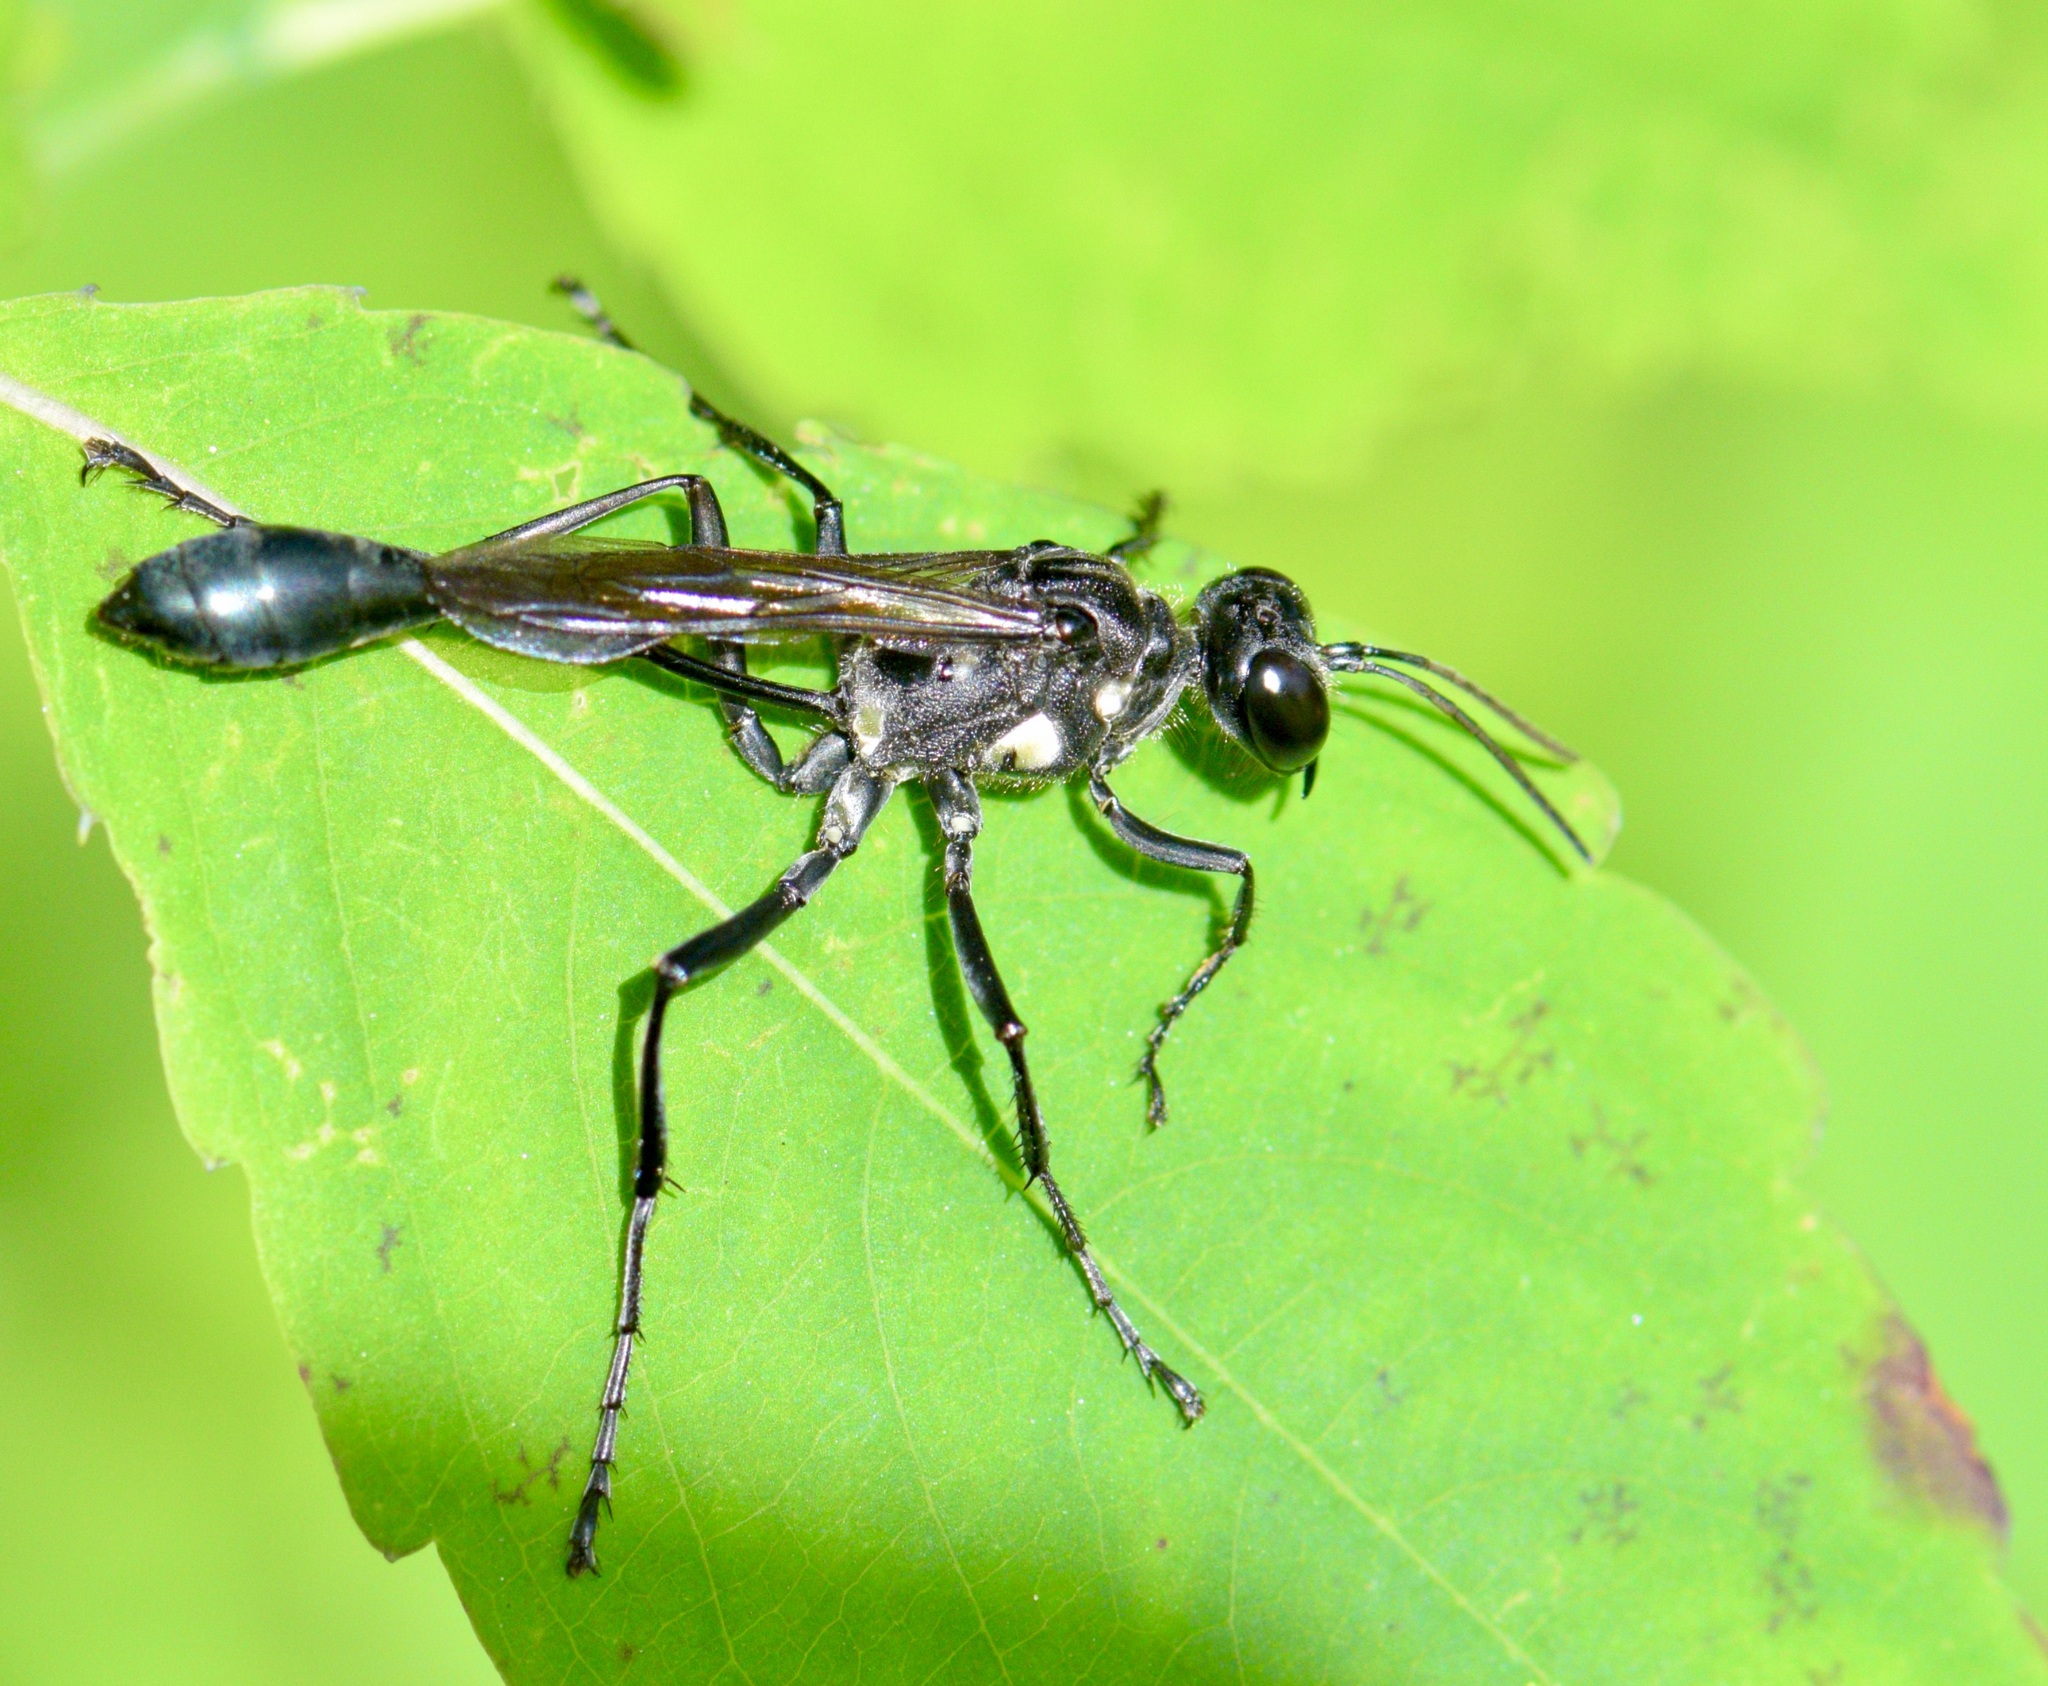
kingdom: Animalia
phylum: Arthropoda
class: Insecta
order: Hymenoptera
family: Sphecidae
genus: Eremnophila
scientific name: Eremnophila aureonotata
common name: Gold-marked thread-waisted wasp
